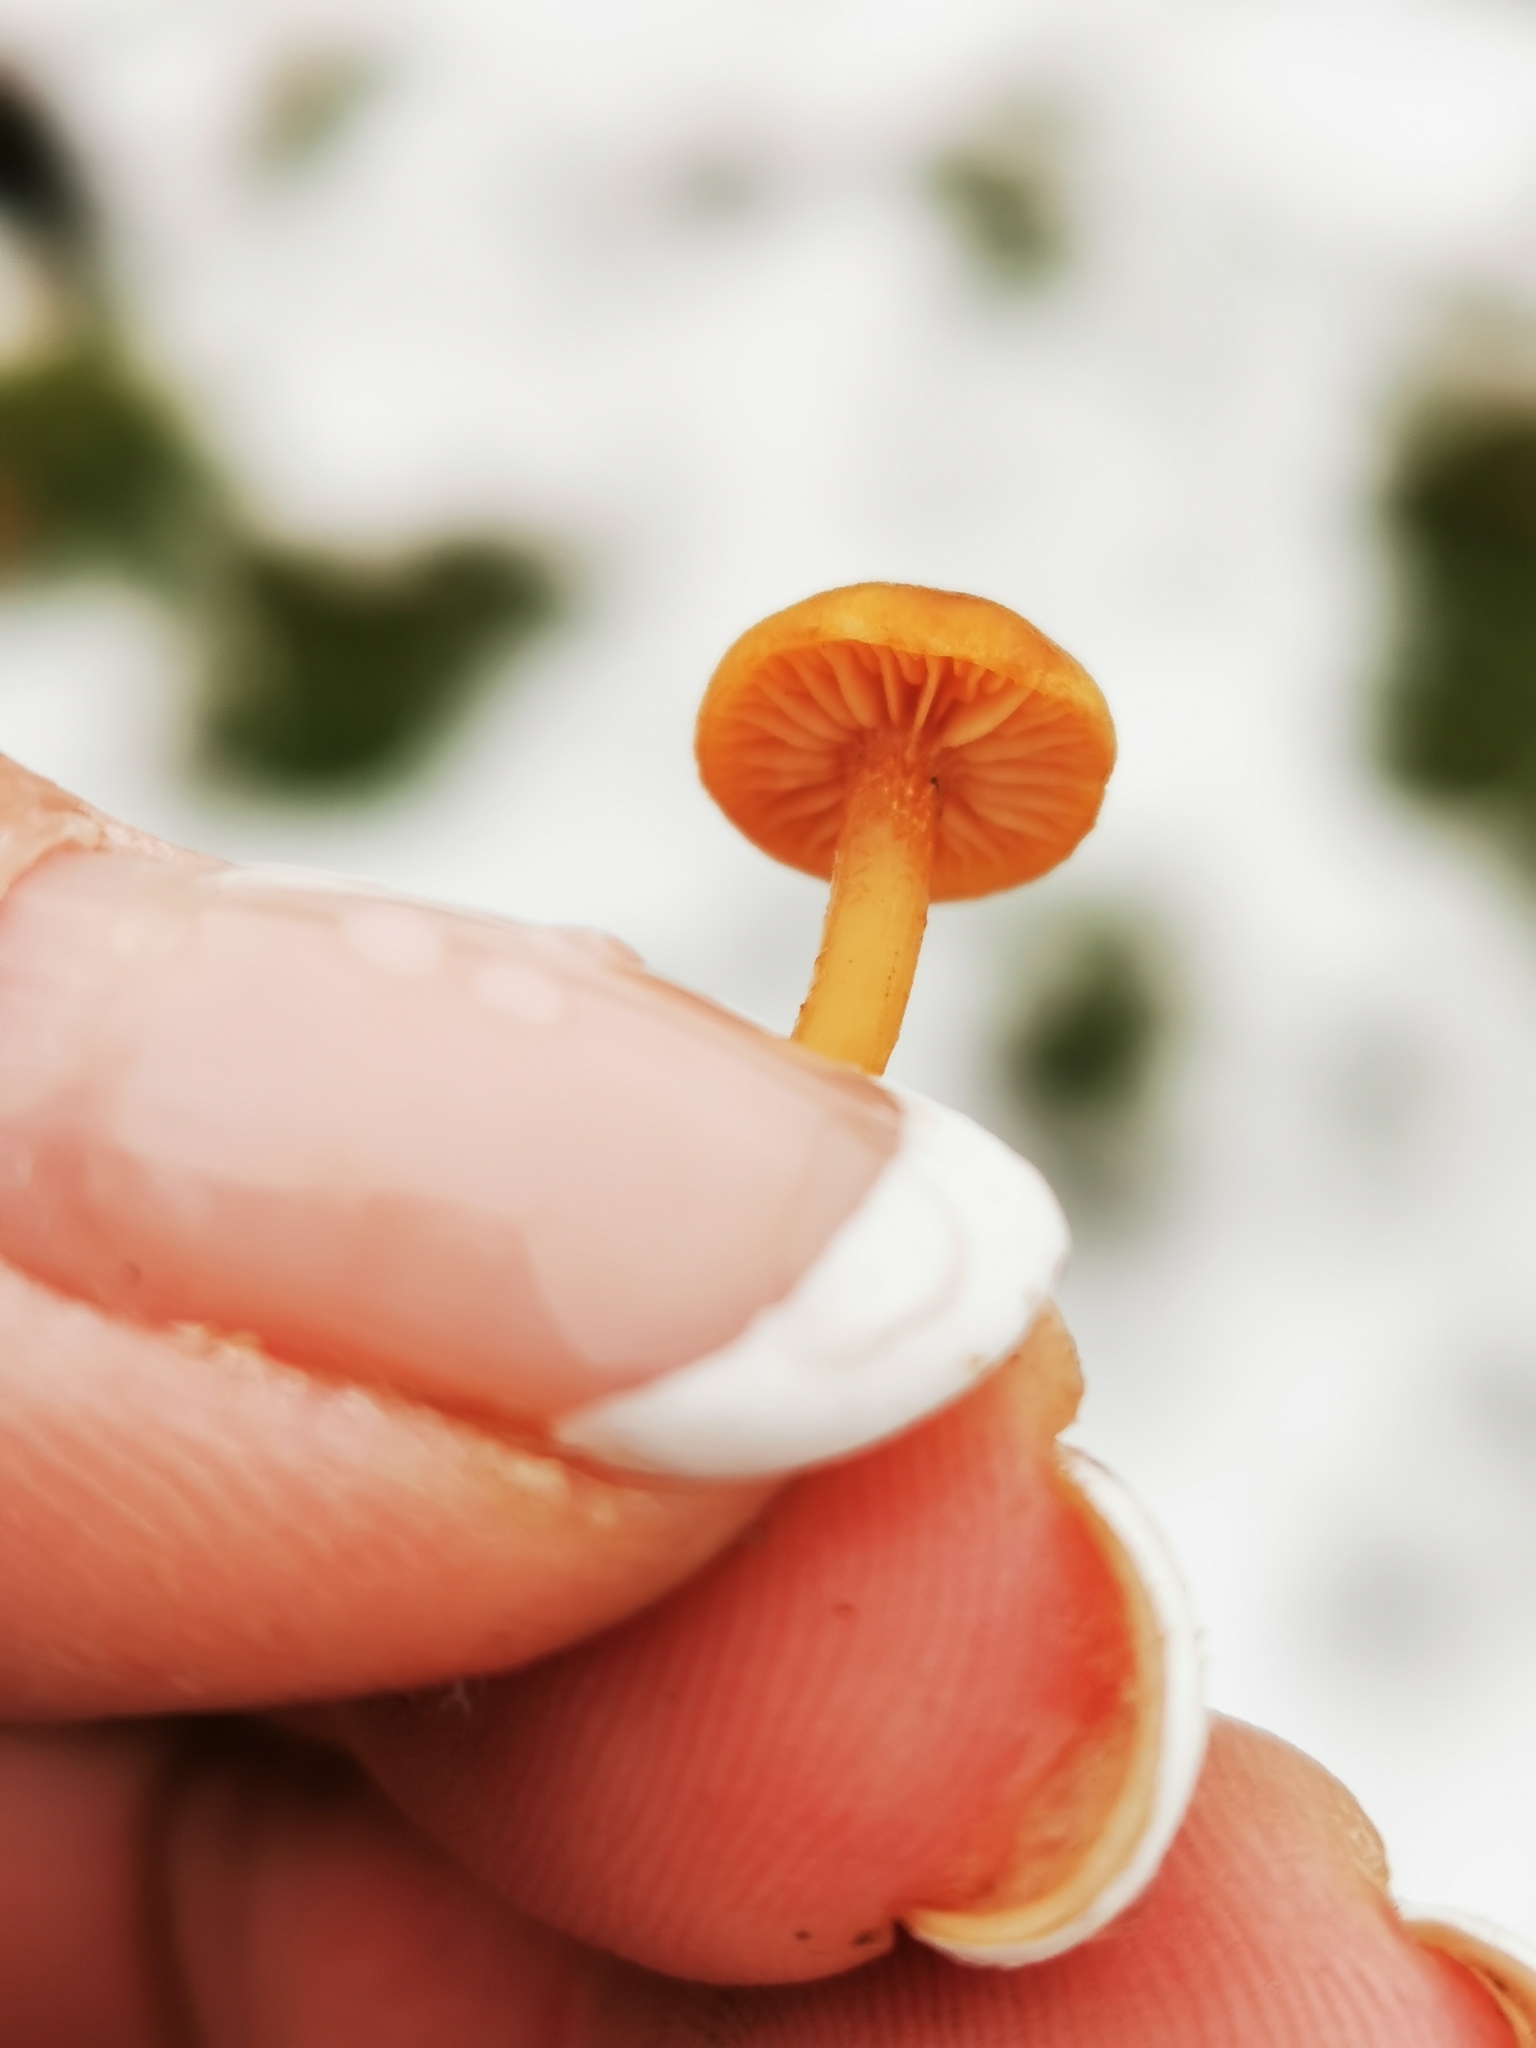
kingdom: Fungi
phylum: Basidiomycota
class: Agaricomycetes
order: Agaricales
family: Hydnangiaceae
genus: Laccaria
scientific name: Laccaria laccata
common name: Deceiver
